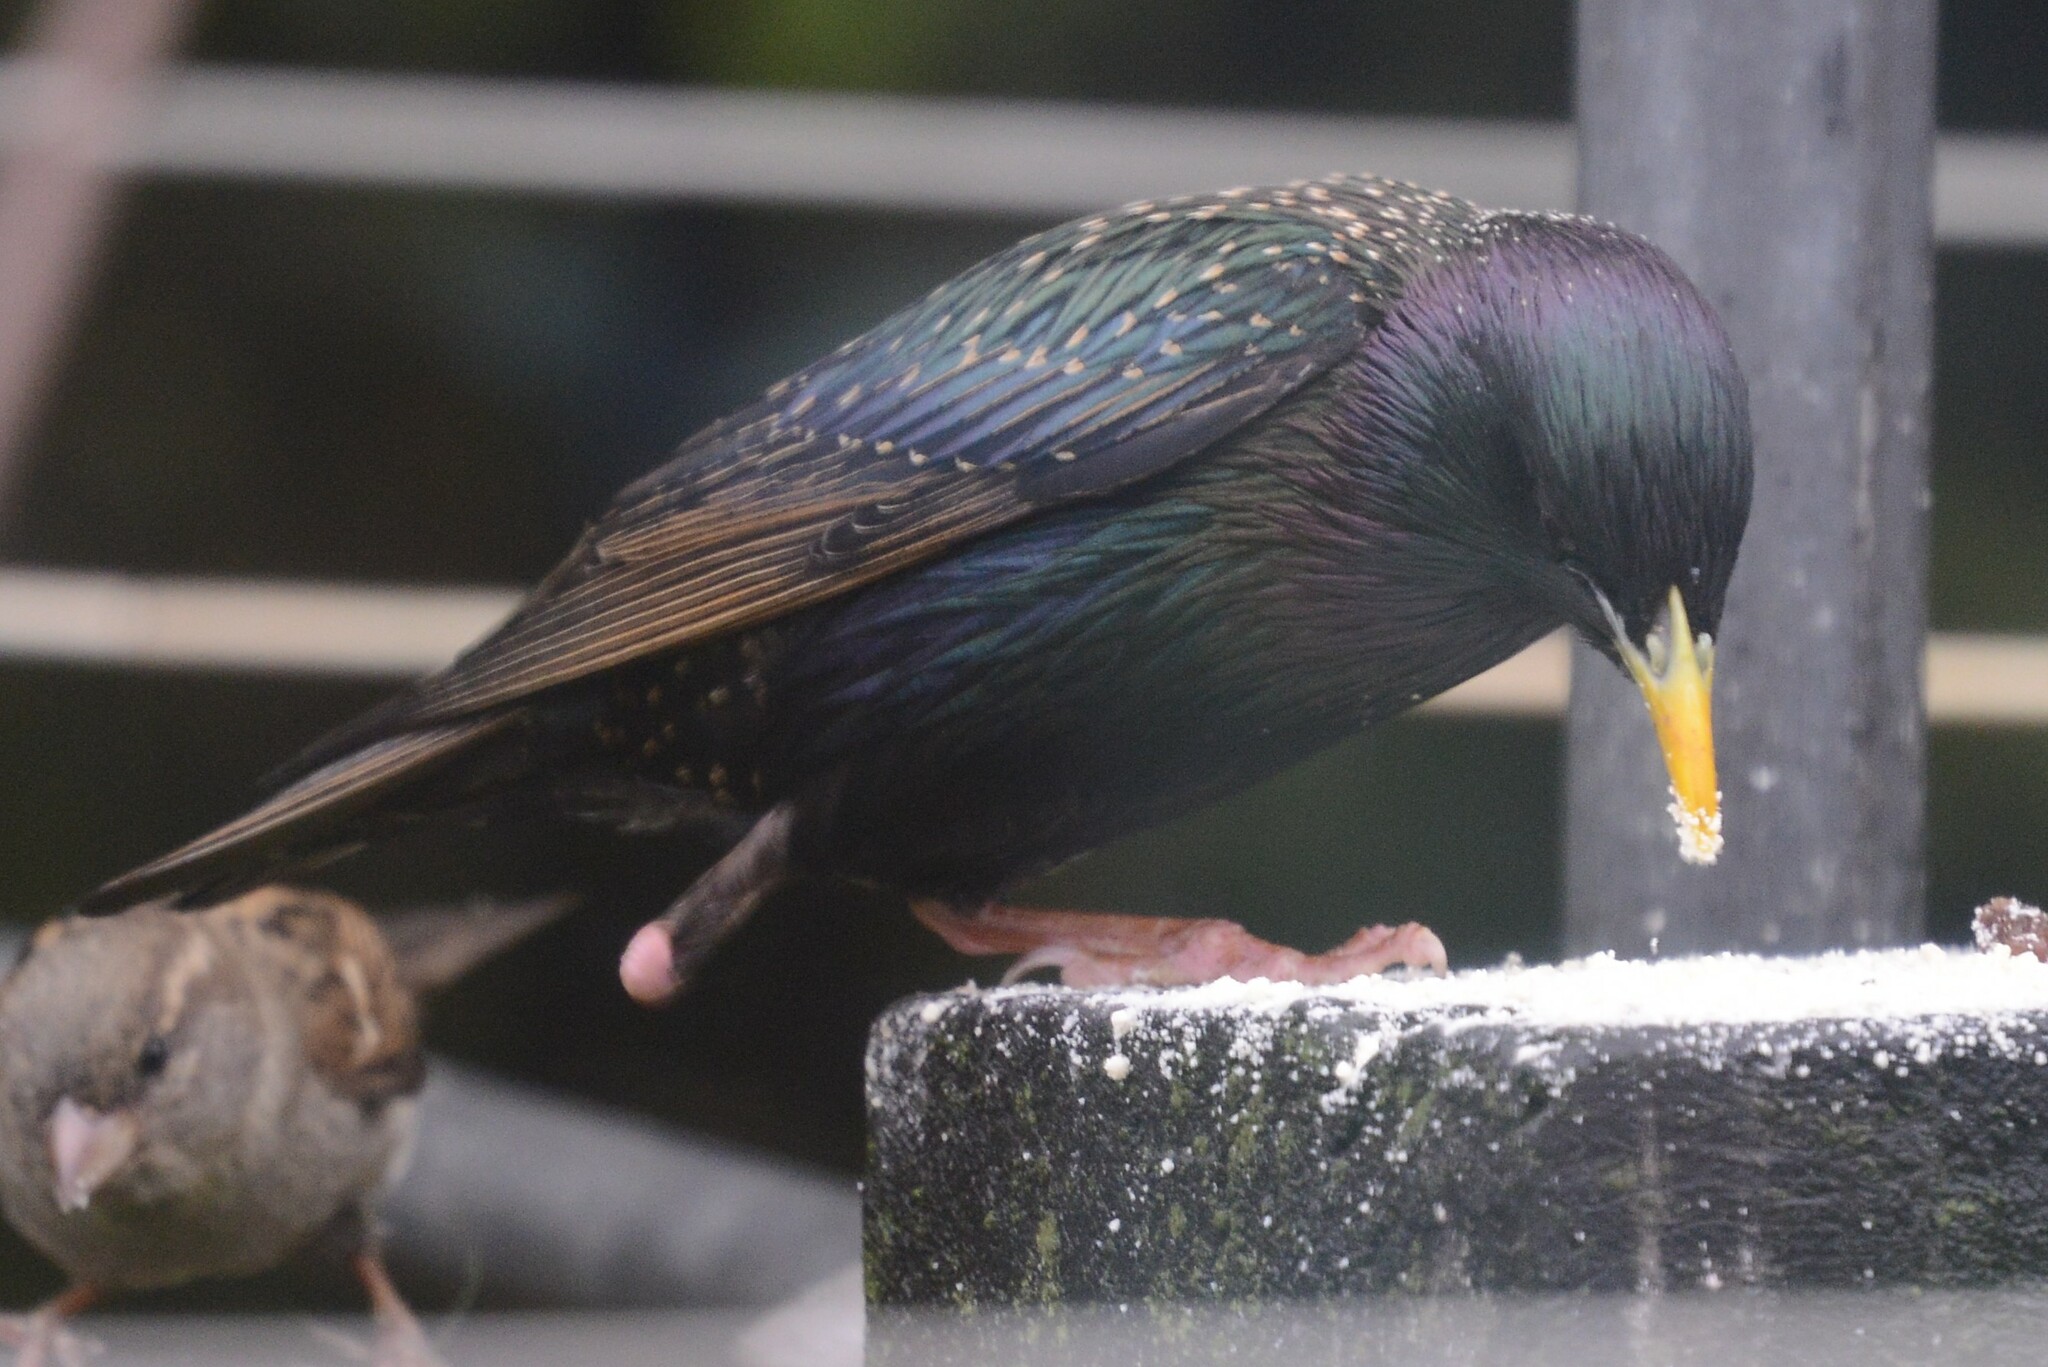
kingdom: Animalia
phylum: Chordata
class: Aves
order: Passeriformes
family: Sturnidae
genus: Sturnus
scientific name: Sturnus vulgaris
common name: Common starling
